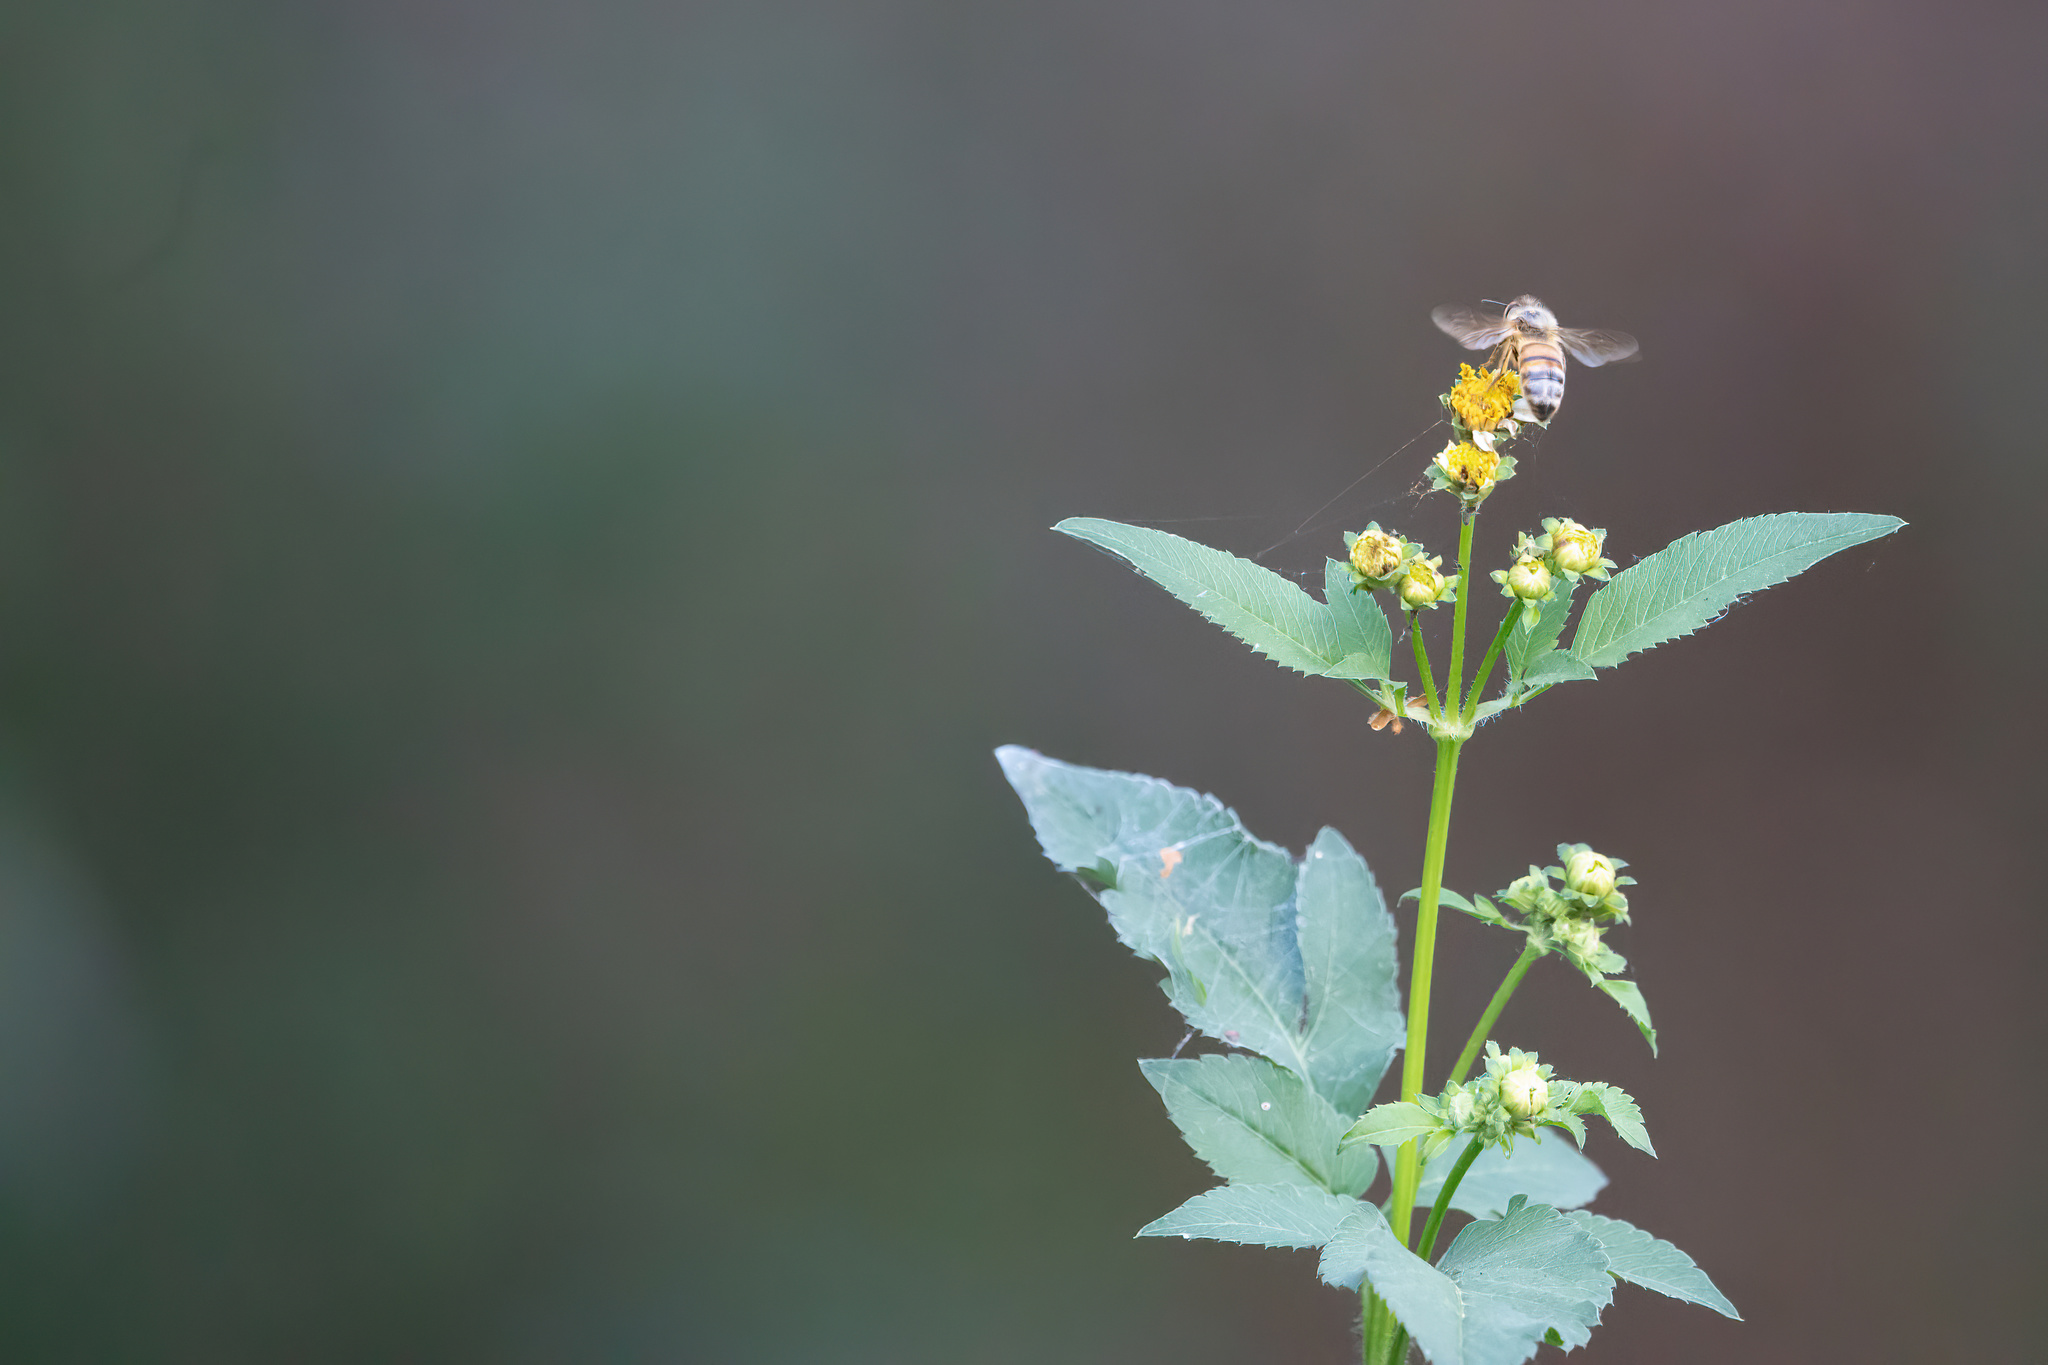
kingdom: Animalia
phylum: Arthropoda
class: Insecta
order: Hymenoptera
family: Apidae
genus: Apis
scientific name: Apis mellifera
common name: Honey bee
